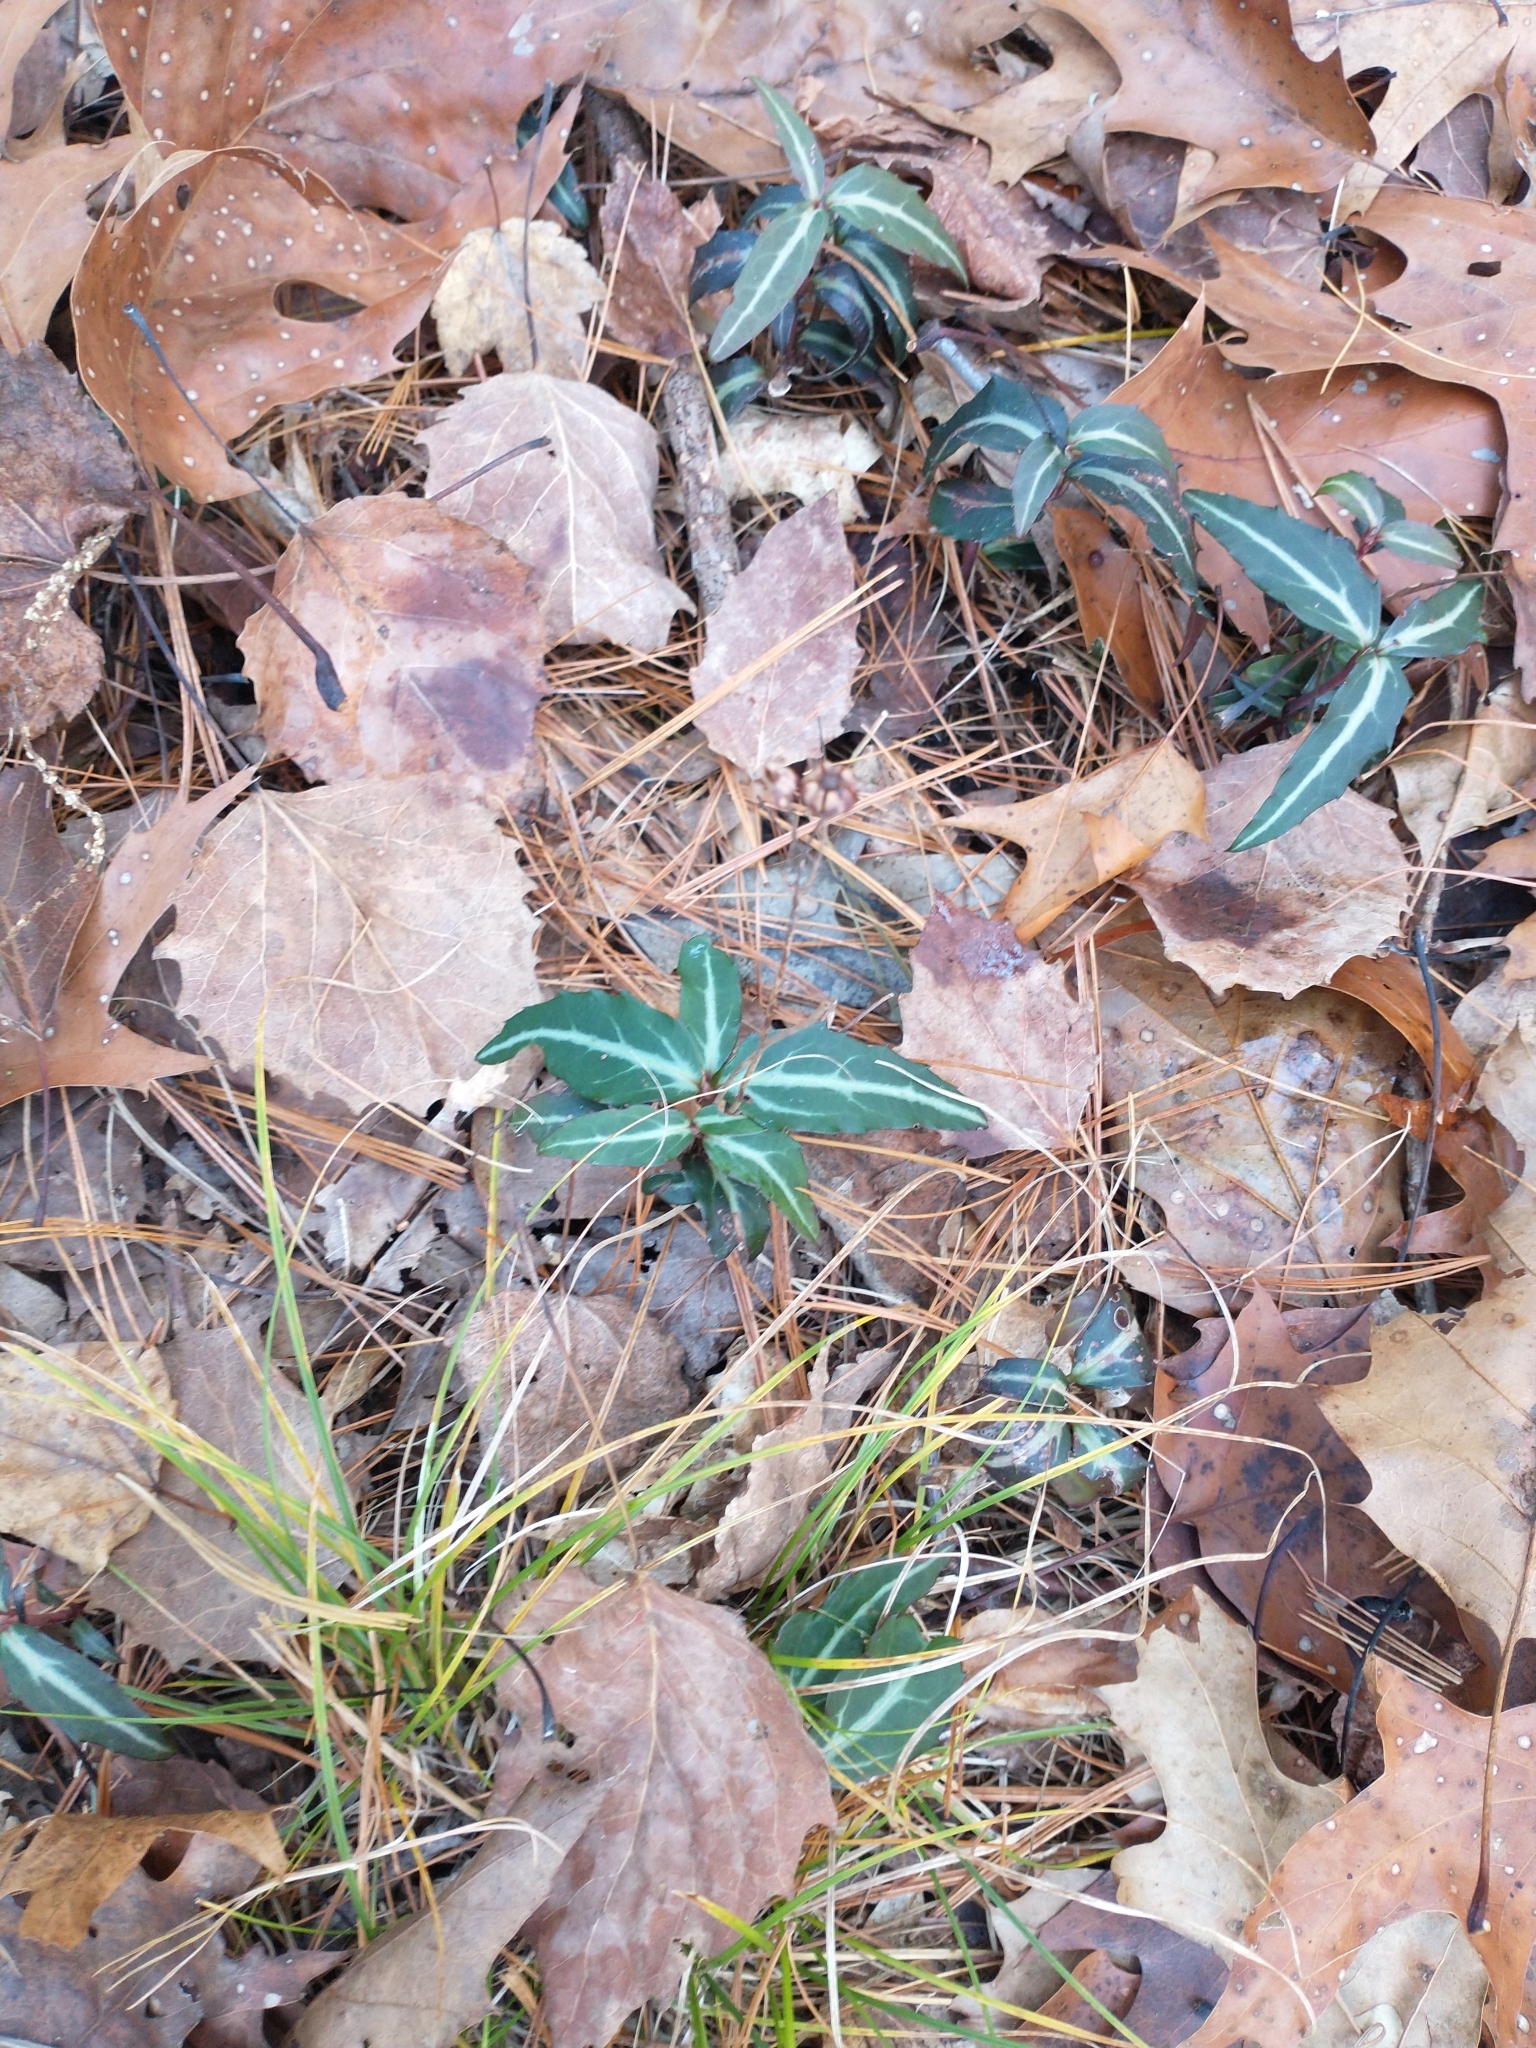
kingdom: Plantae
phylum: Tracheophyta
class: Magnoliopsida
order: Ericales
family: Ericaceae
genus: Chimaphila
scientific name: Chimaphila maculata
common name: Spotted pipsissewa
